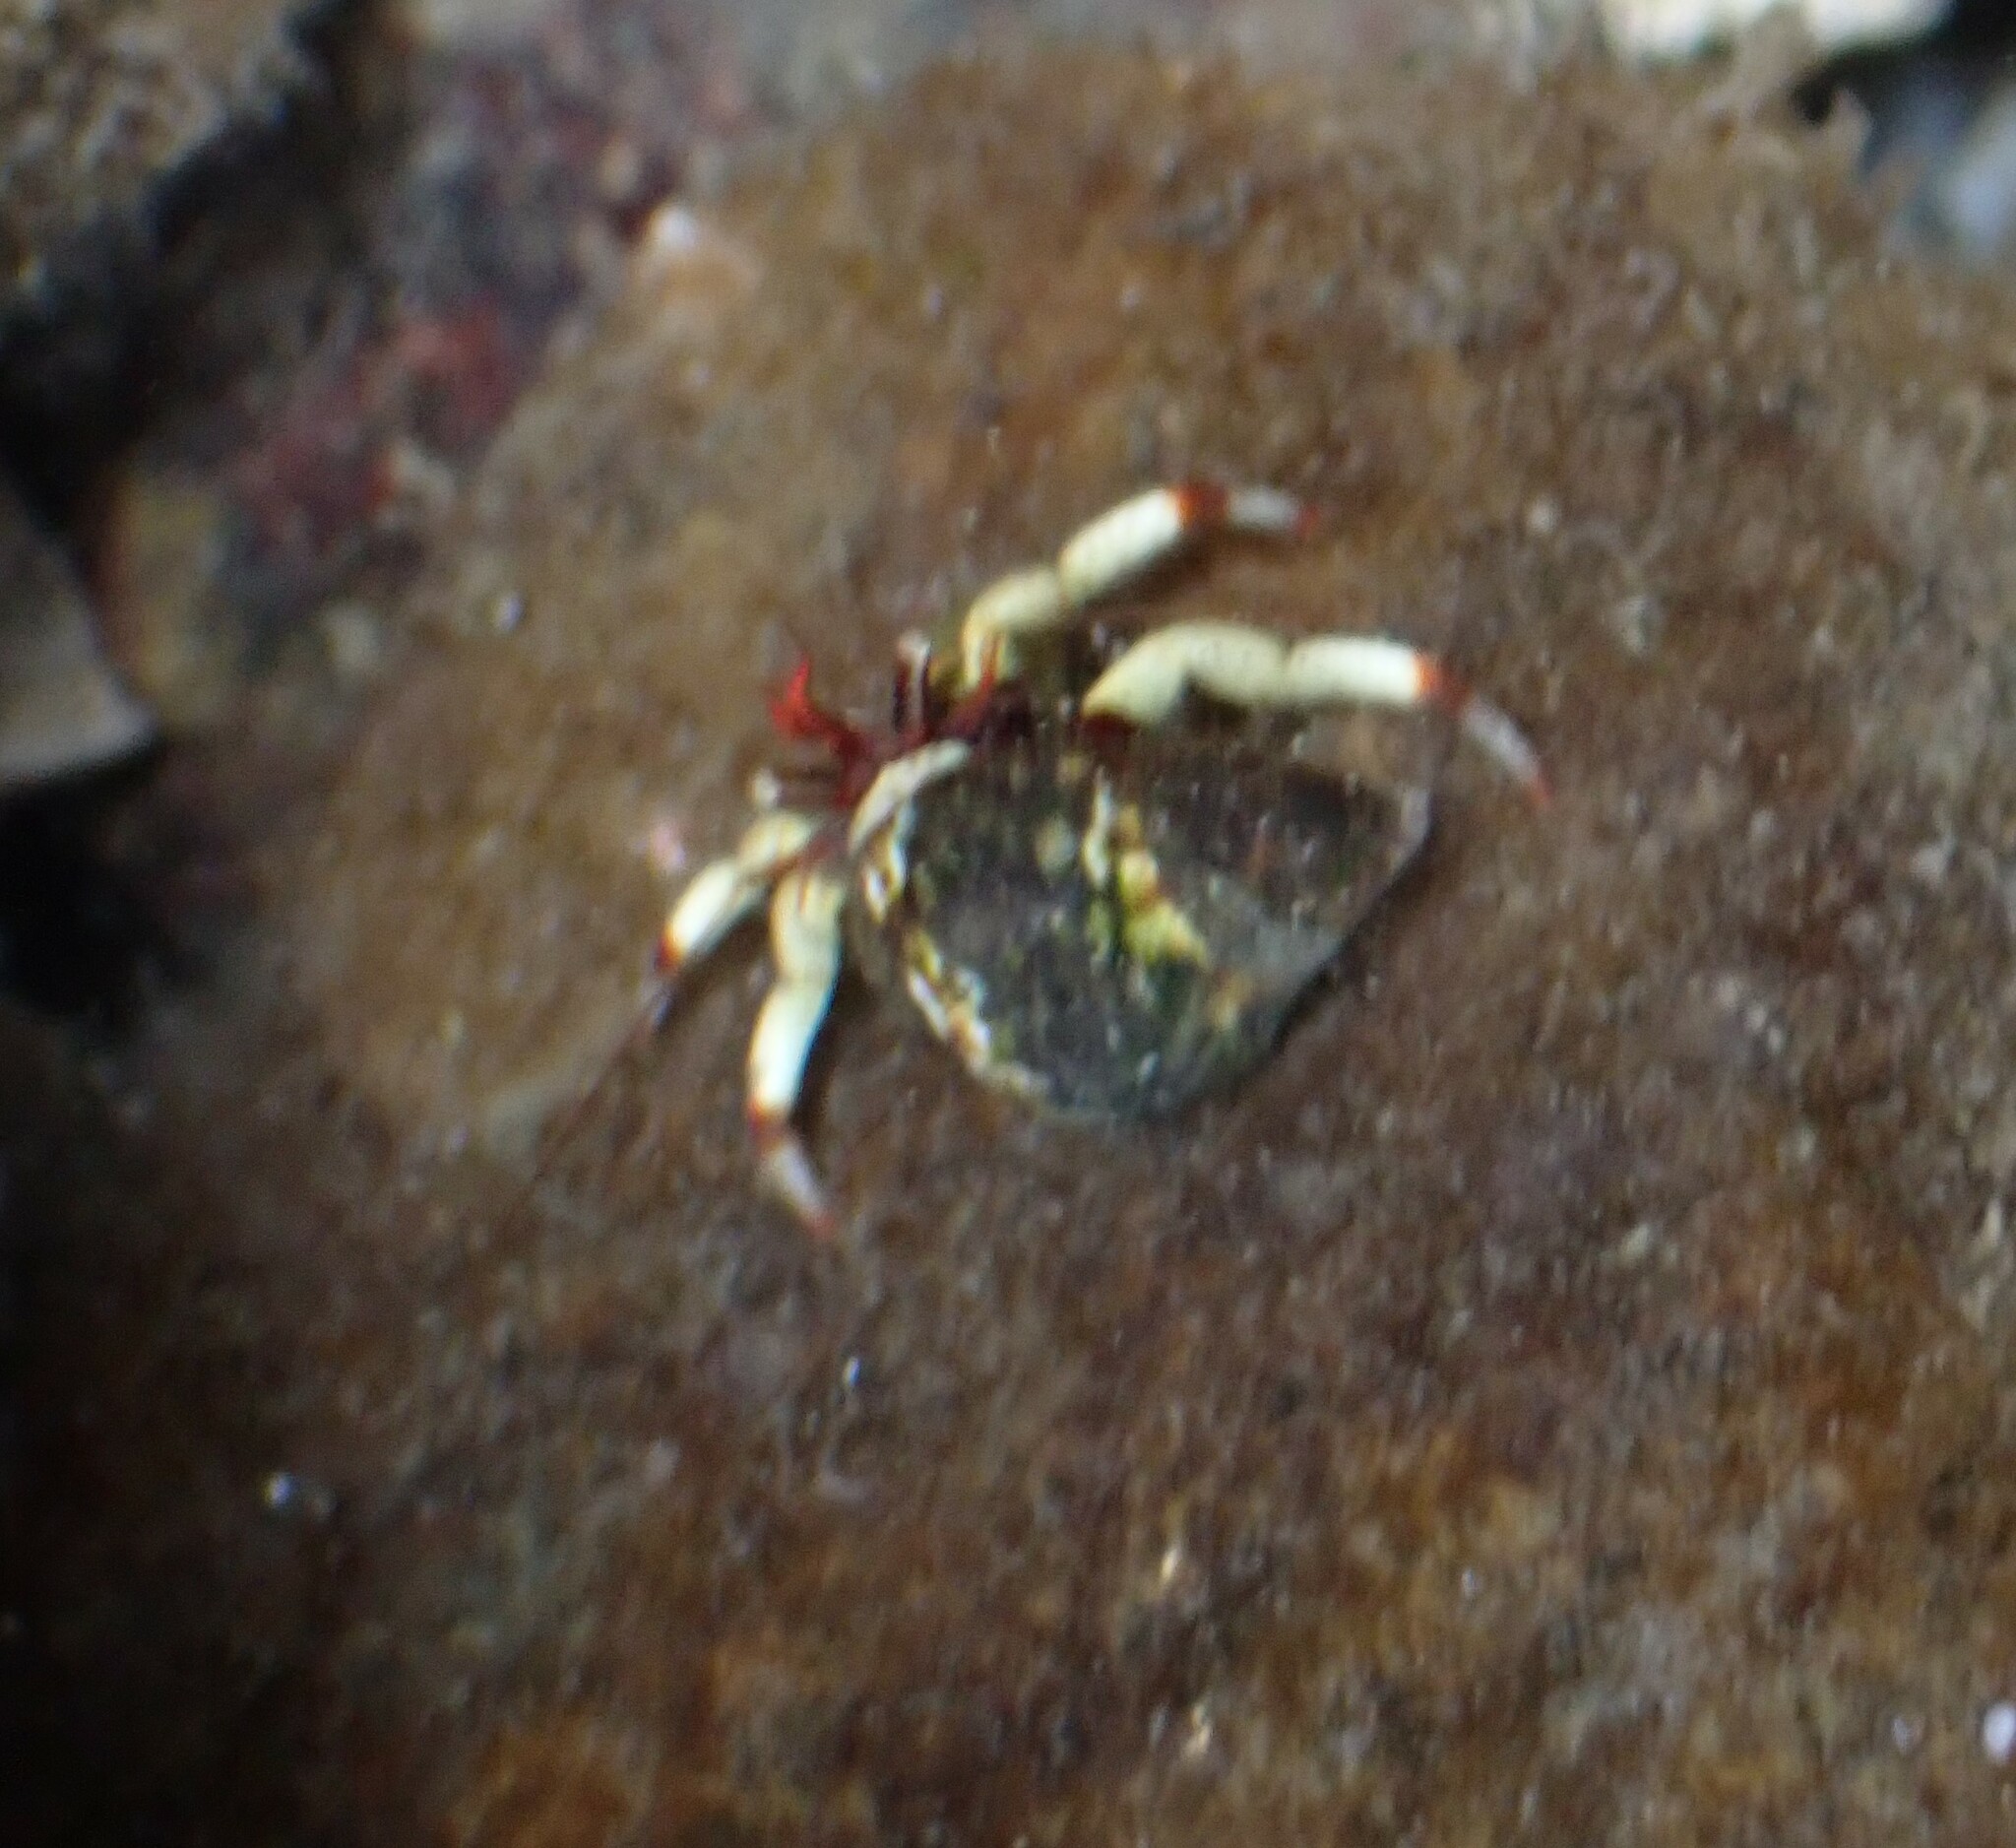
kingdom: Animalia
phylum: Arthropoda
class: Malacostraca
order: Decapoda
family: Paguridae
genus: Pagurus
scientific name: Pagurus beringanus
